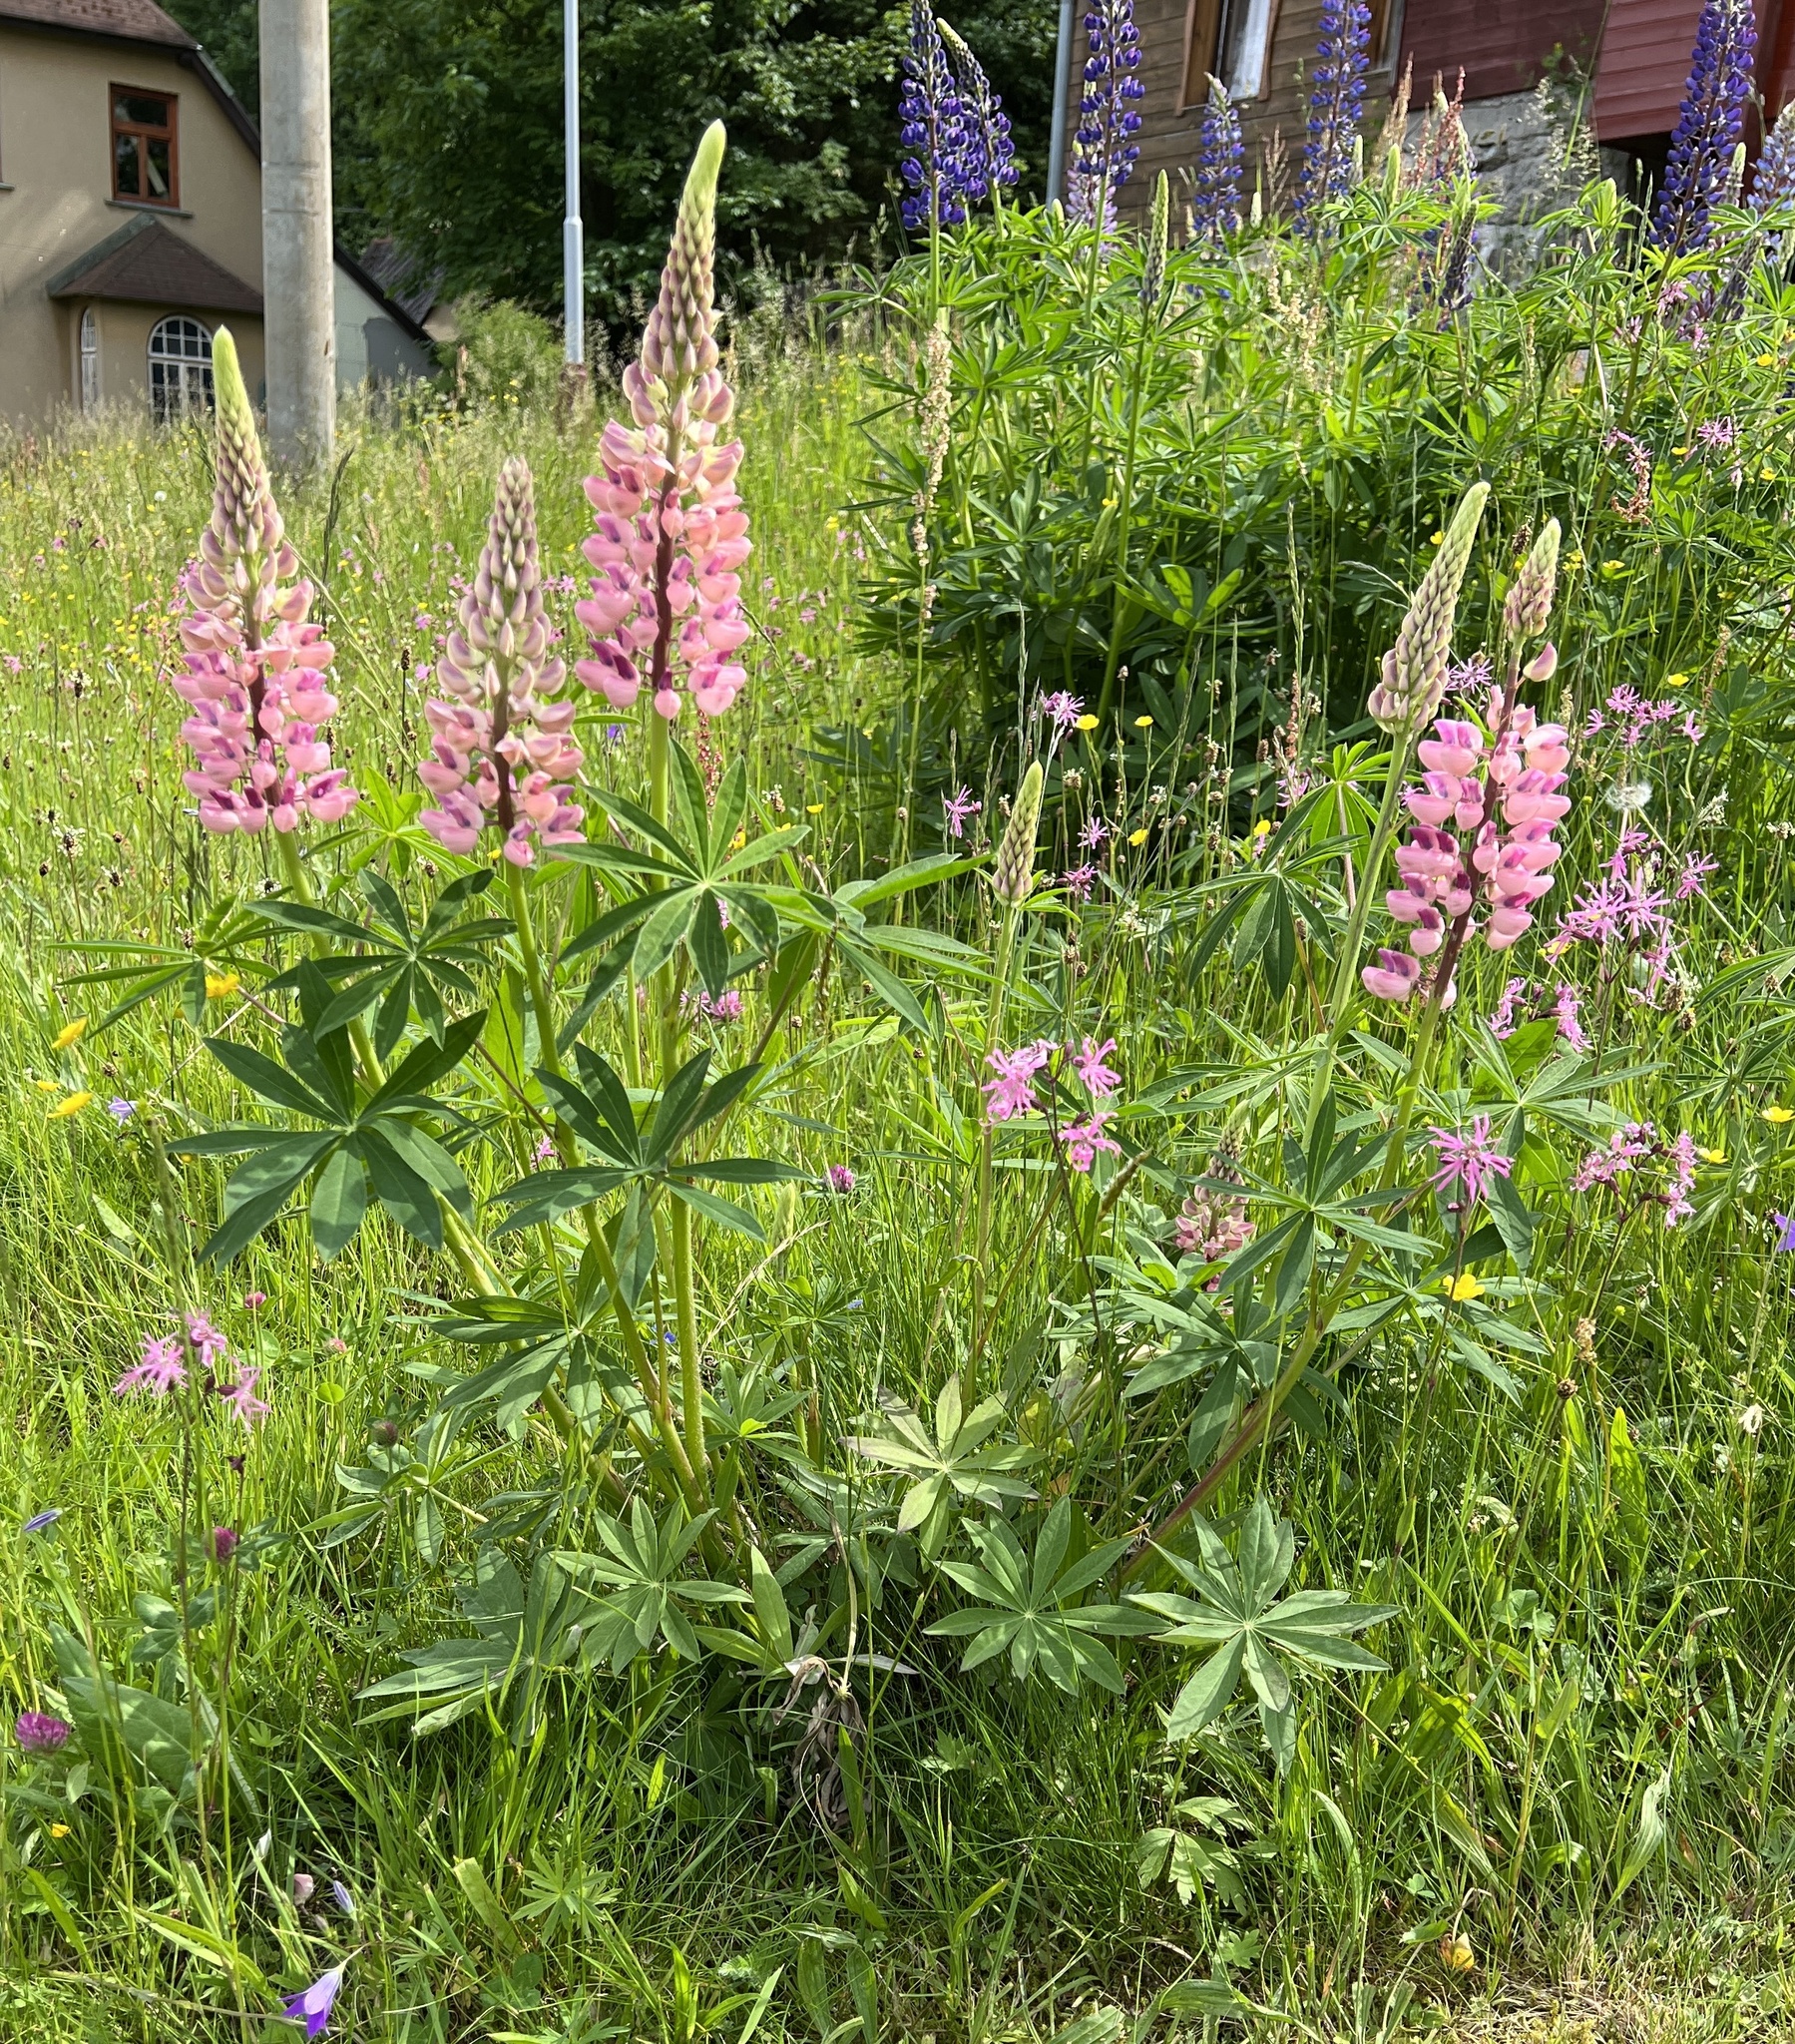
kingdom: Plantae
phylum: Tracheophyta
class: Magnoliopsida
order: Fabales
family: Fabaceae
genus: Lupinus
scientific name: Lupinus polyphyllus
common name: Garden lupin
